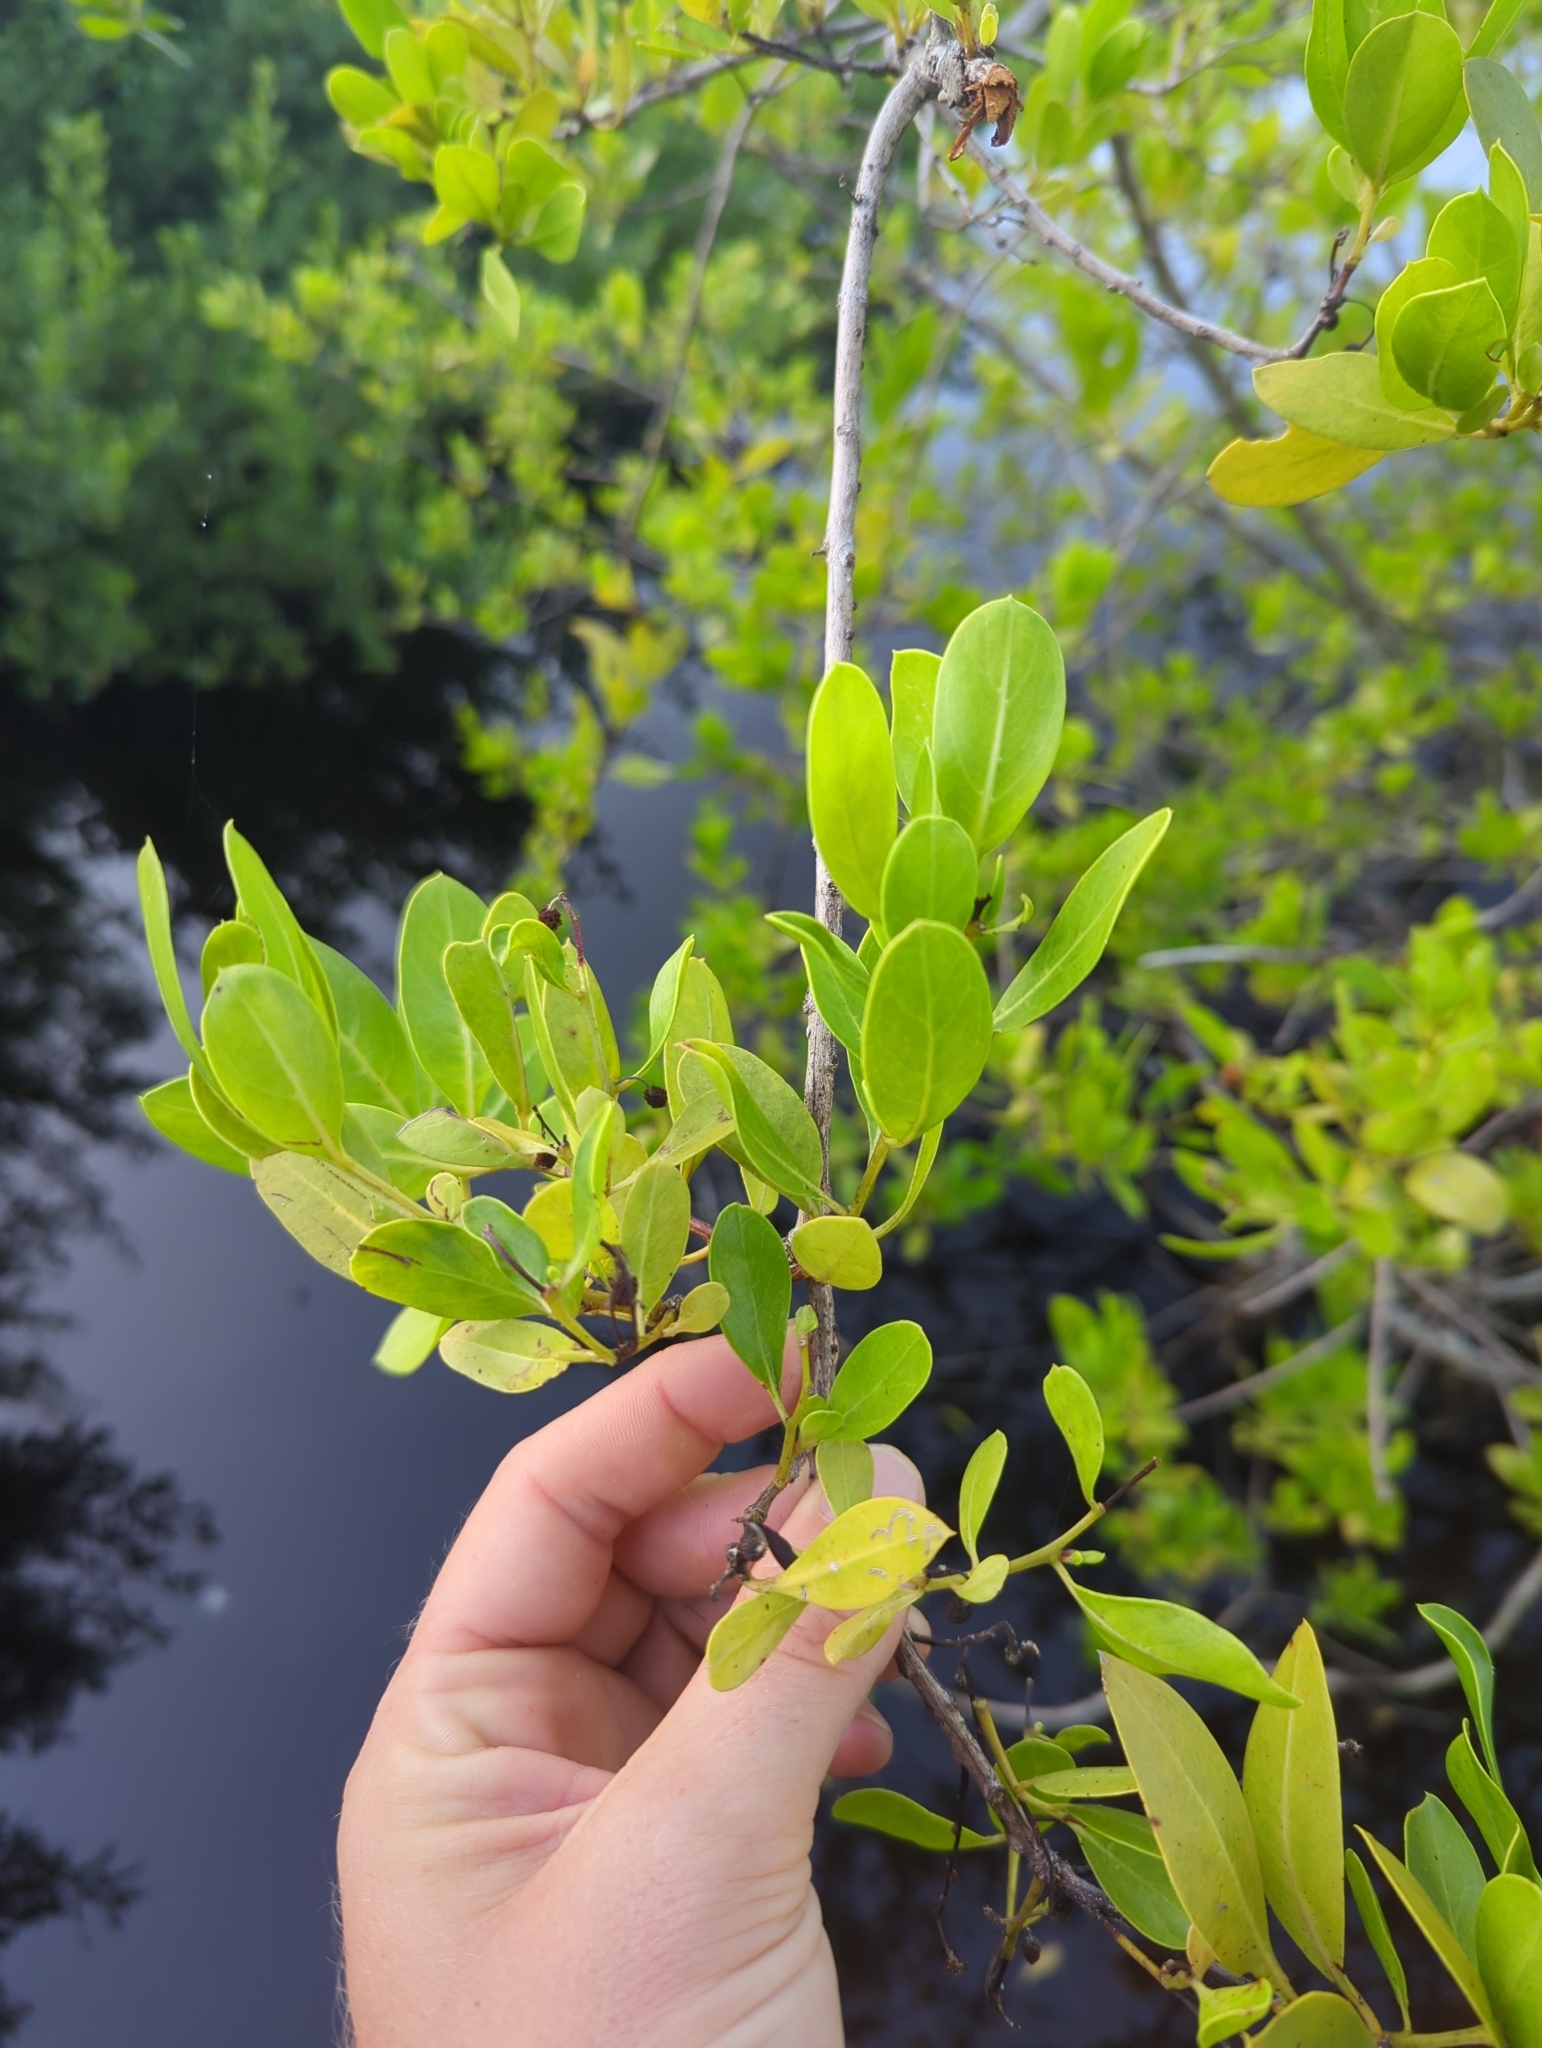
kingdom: Plantae
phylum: Tracheophyta
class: Magnoliopsida
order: Myrtales
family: Combretaceae
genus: Conocarpus
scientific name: Conocarpus erectus
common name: Button mangrove
